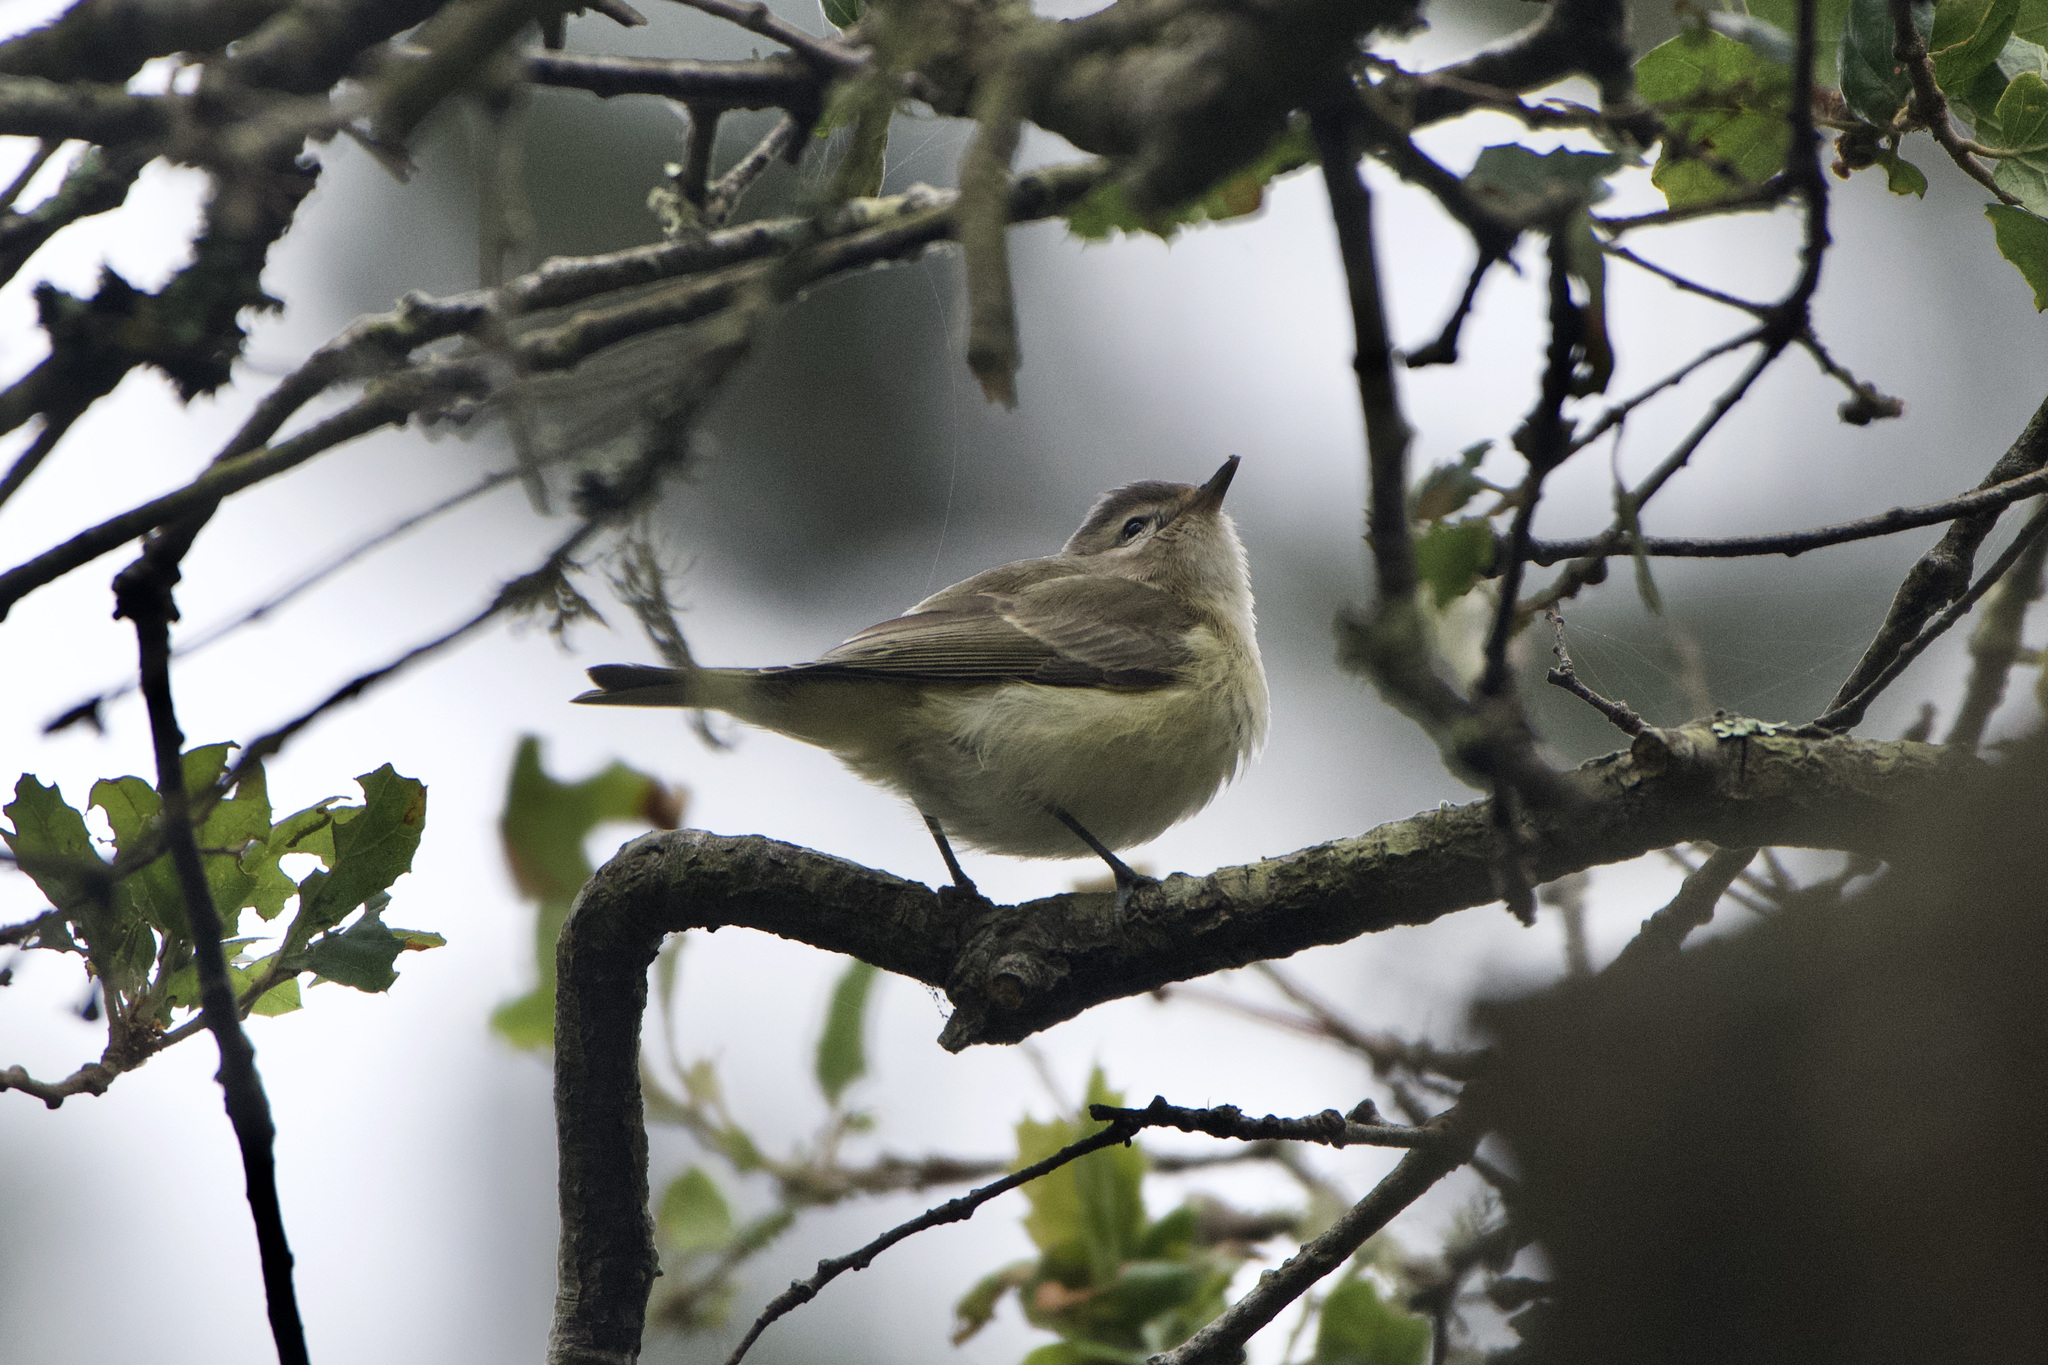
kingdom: Animalia
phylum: Chordata
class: Aves
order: Passeriformes
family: Vireonidae
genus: Vireo
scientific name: Vireo gilvus
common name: Warbling vireo
